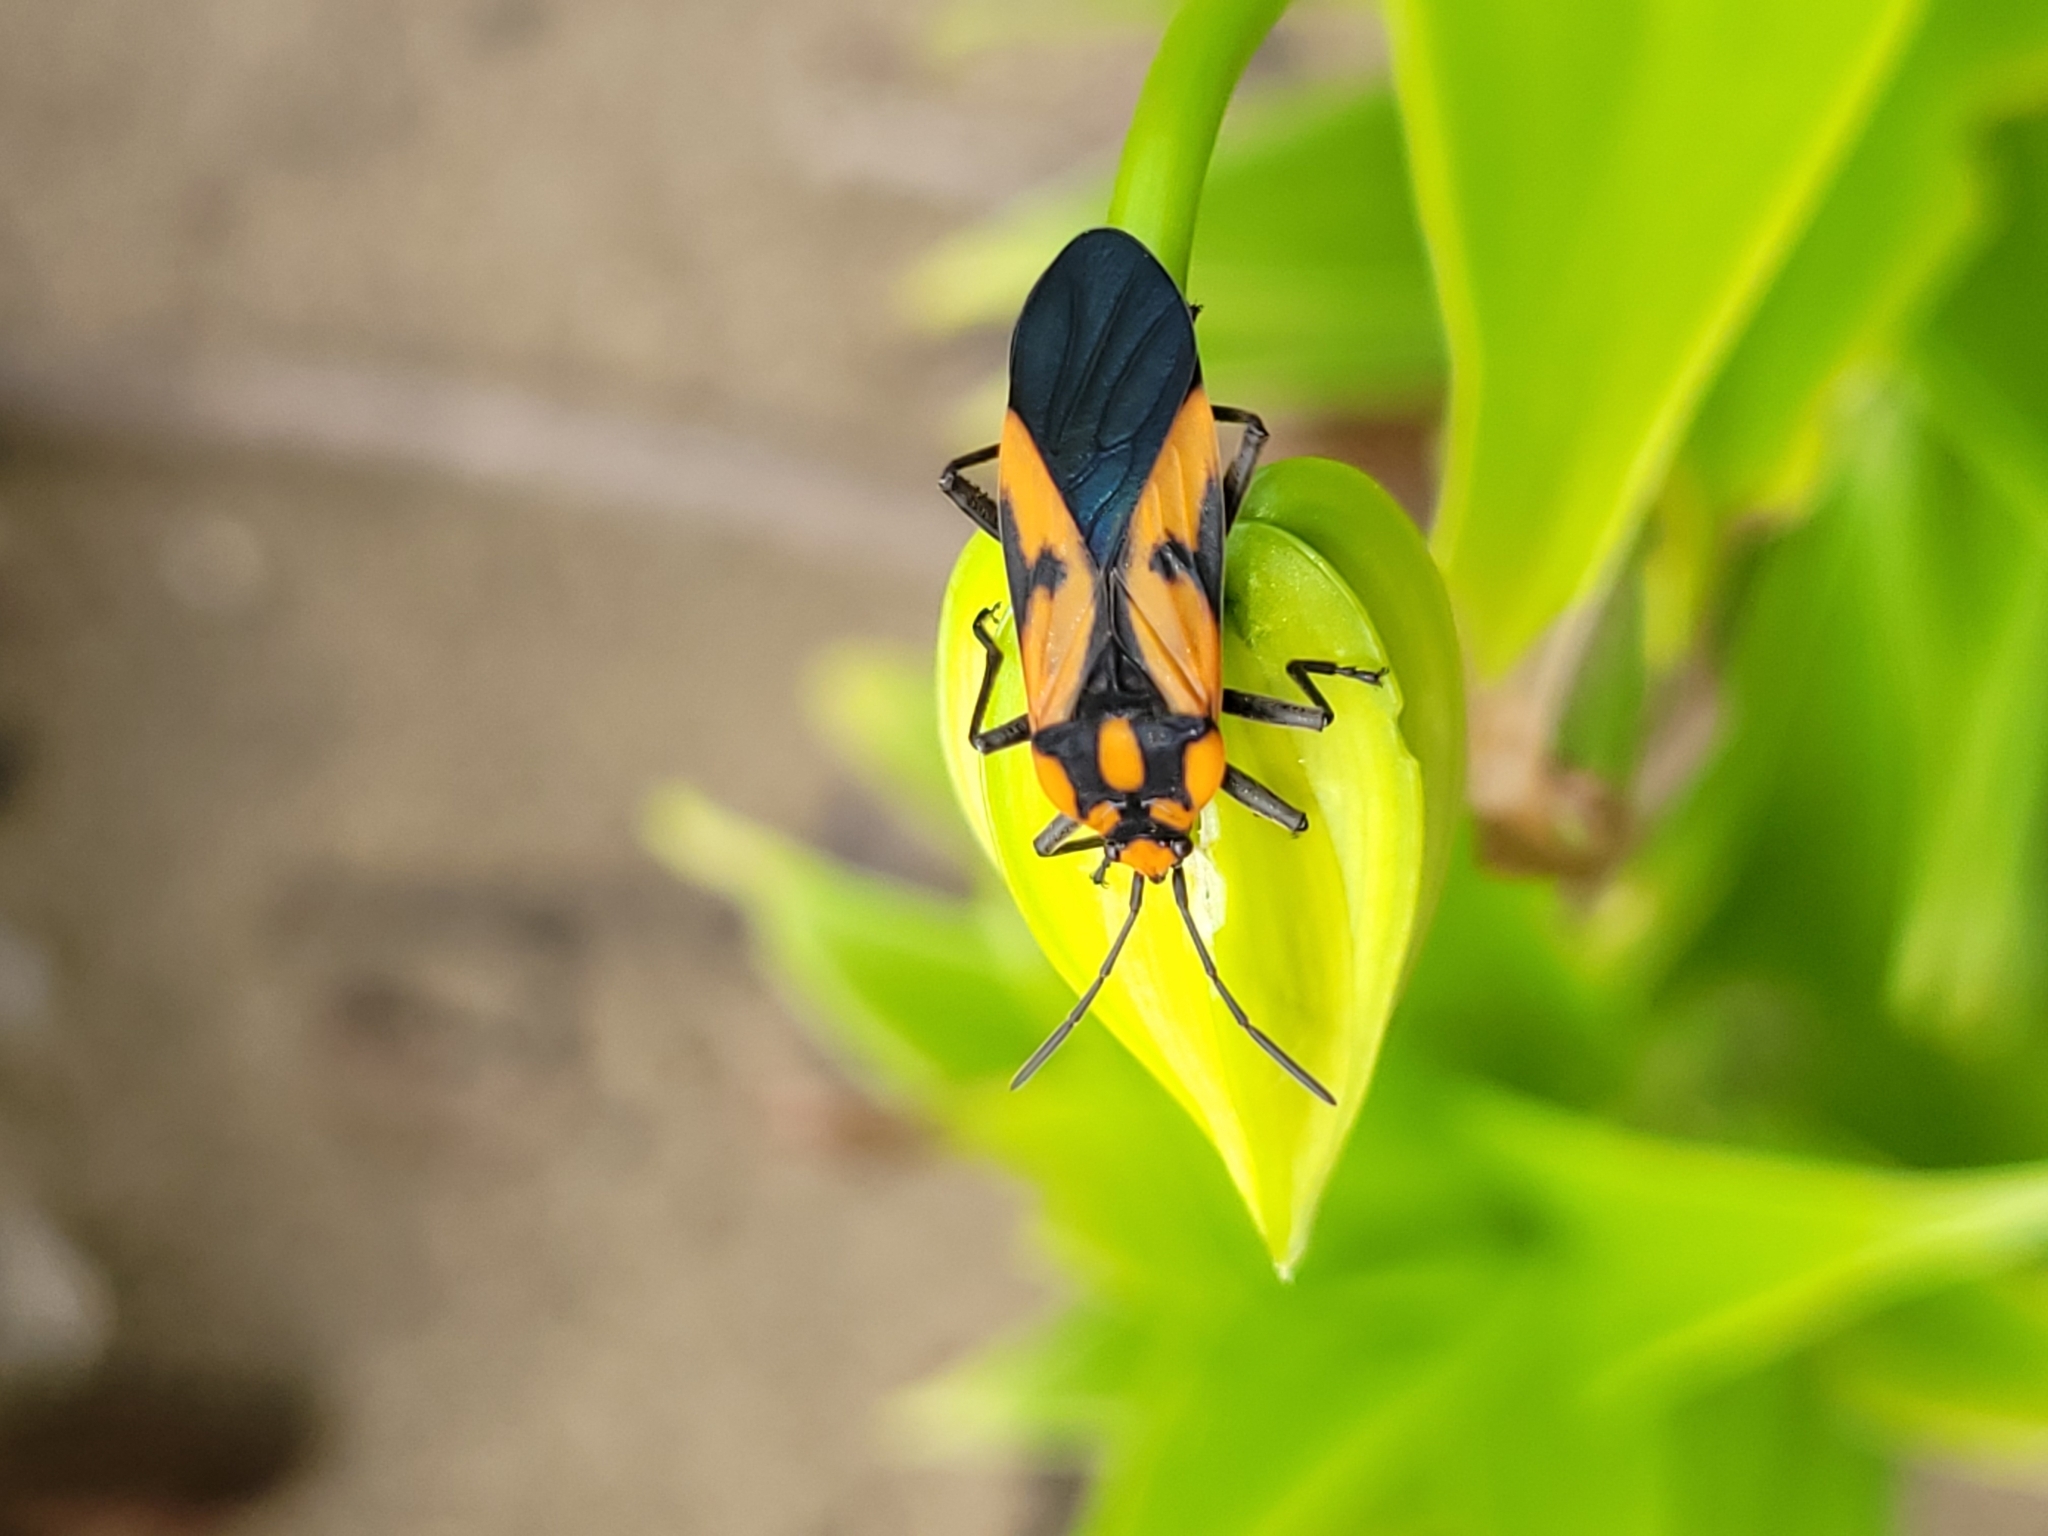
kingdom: Animalia
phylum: Arthropoda
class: Insecta
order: Hemiptera
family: Lygaeidae
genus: Stalagmostethus
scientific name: Stalagmostethus fuscatus
